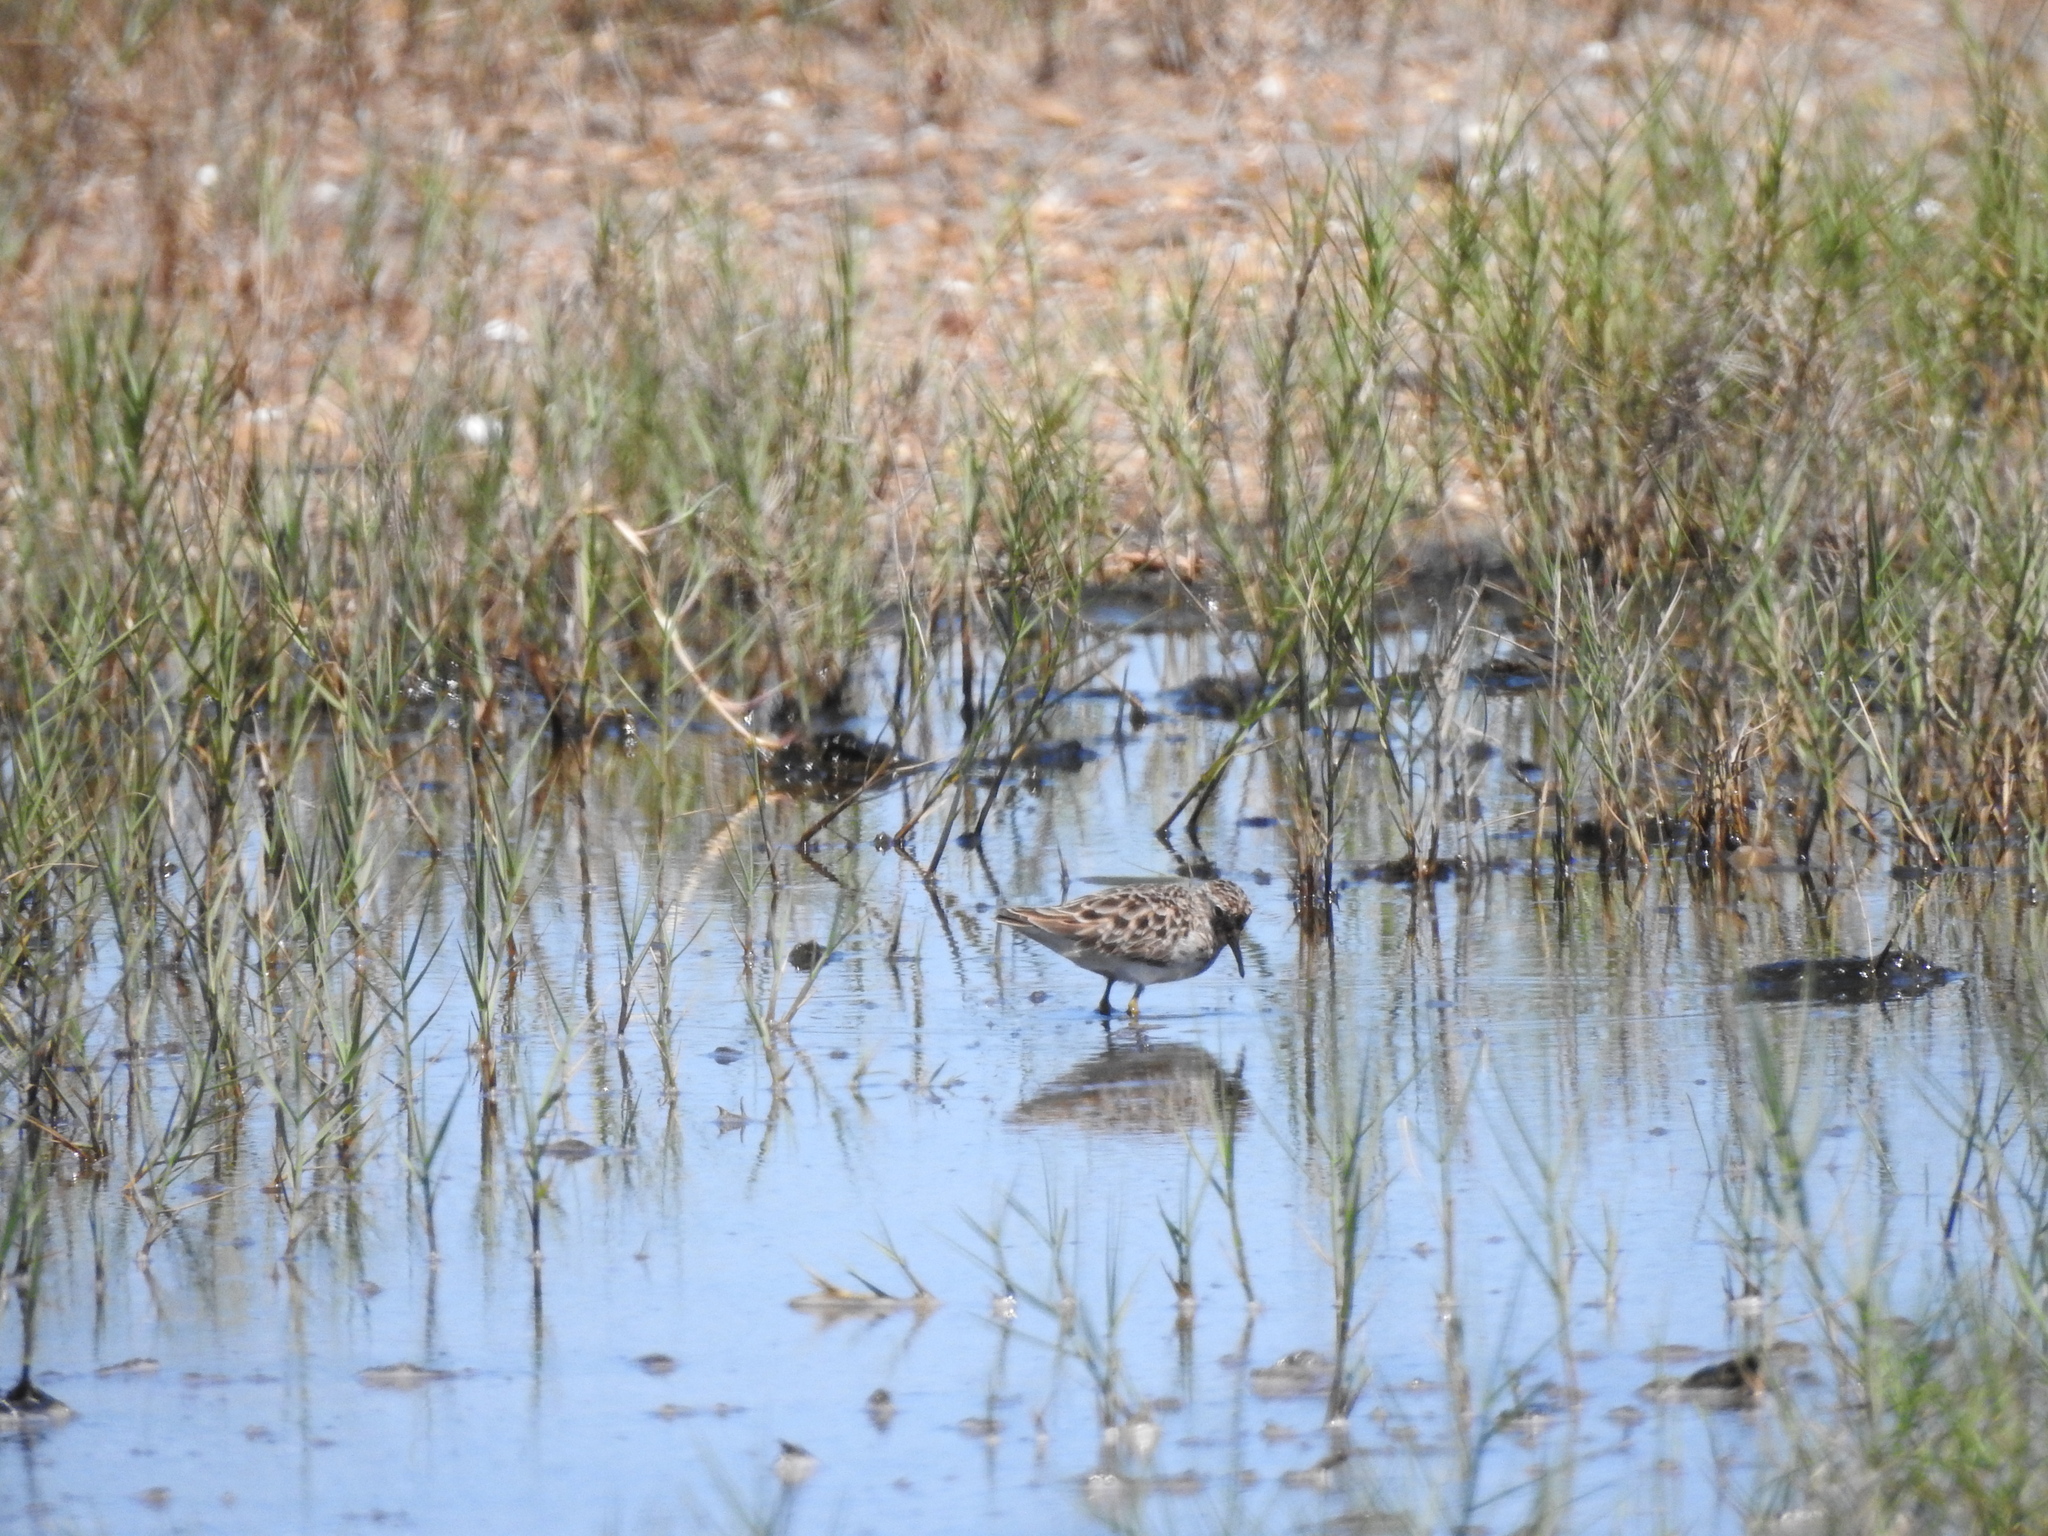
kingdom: Animalia
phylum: Chordata
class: Aves
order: Charadriiformes
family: Scolopacidae
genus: Calidris
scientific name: Calidris minutilla
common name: Least sandpiper
